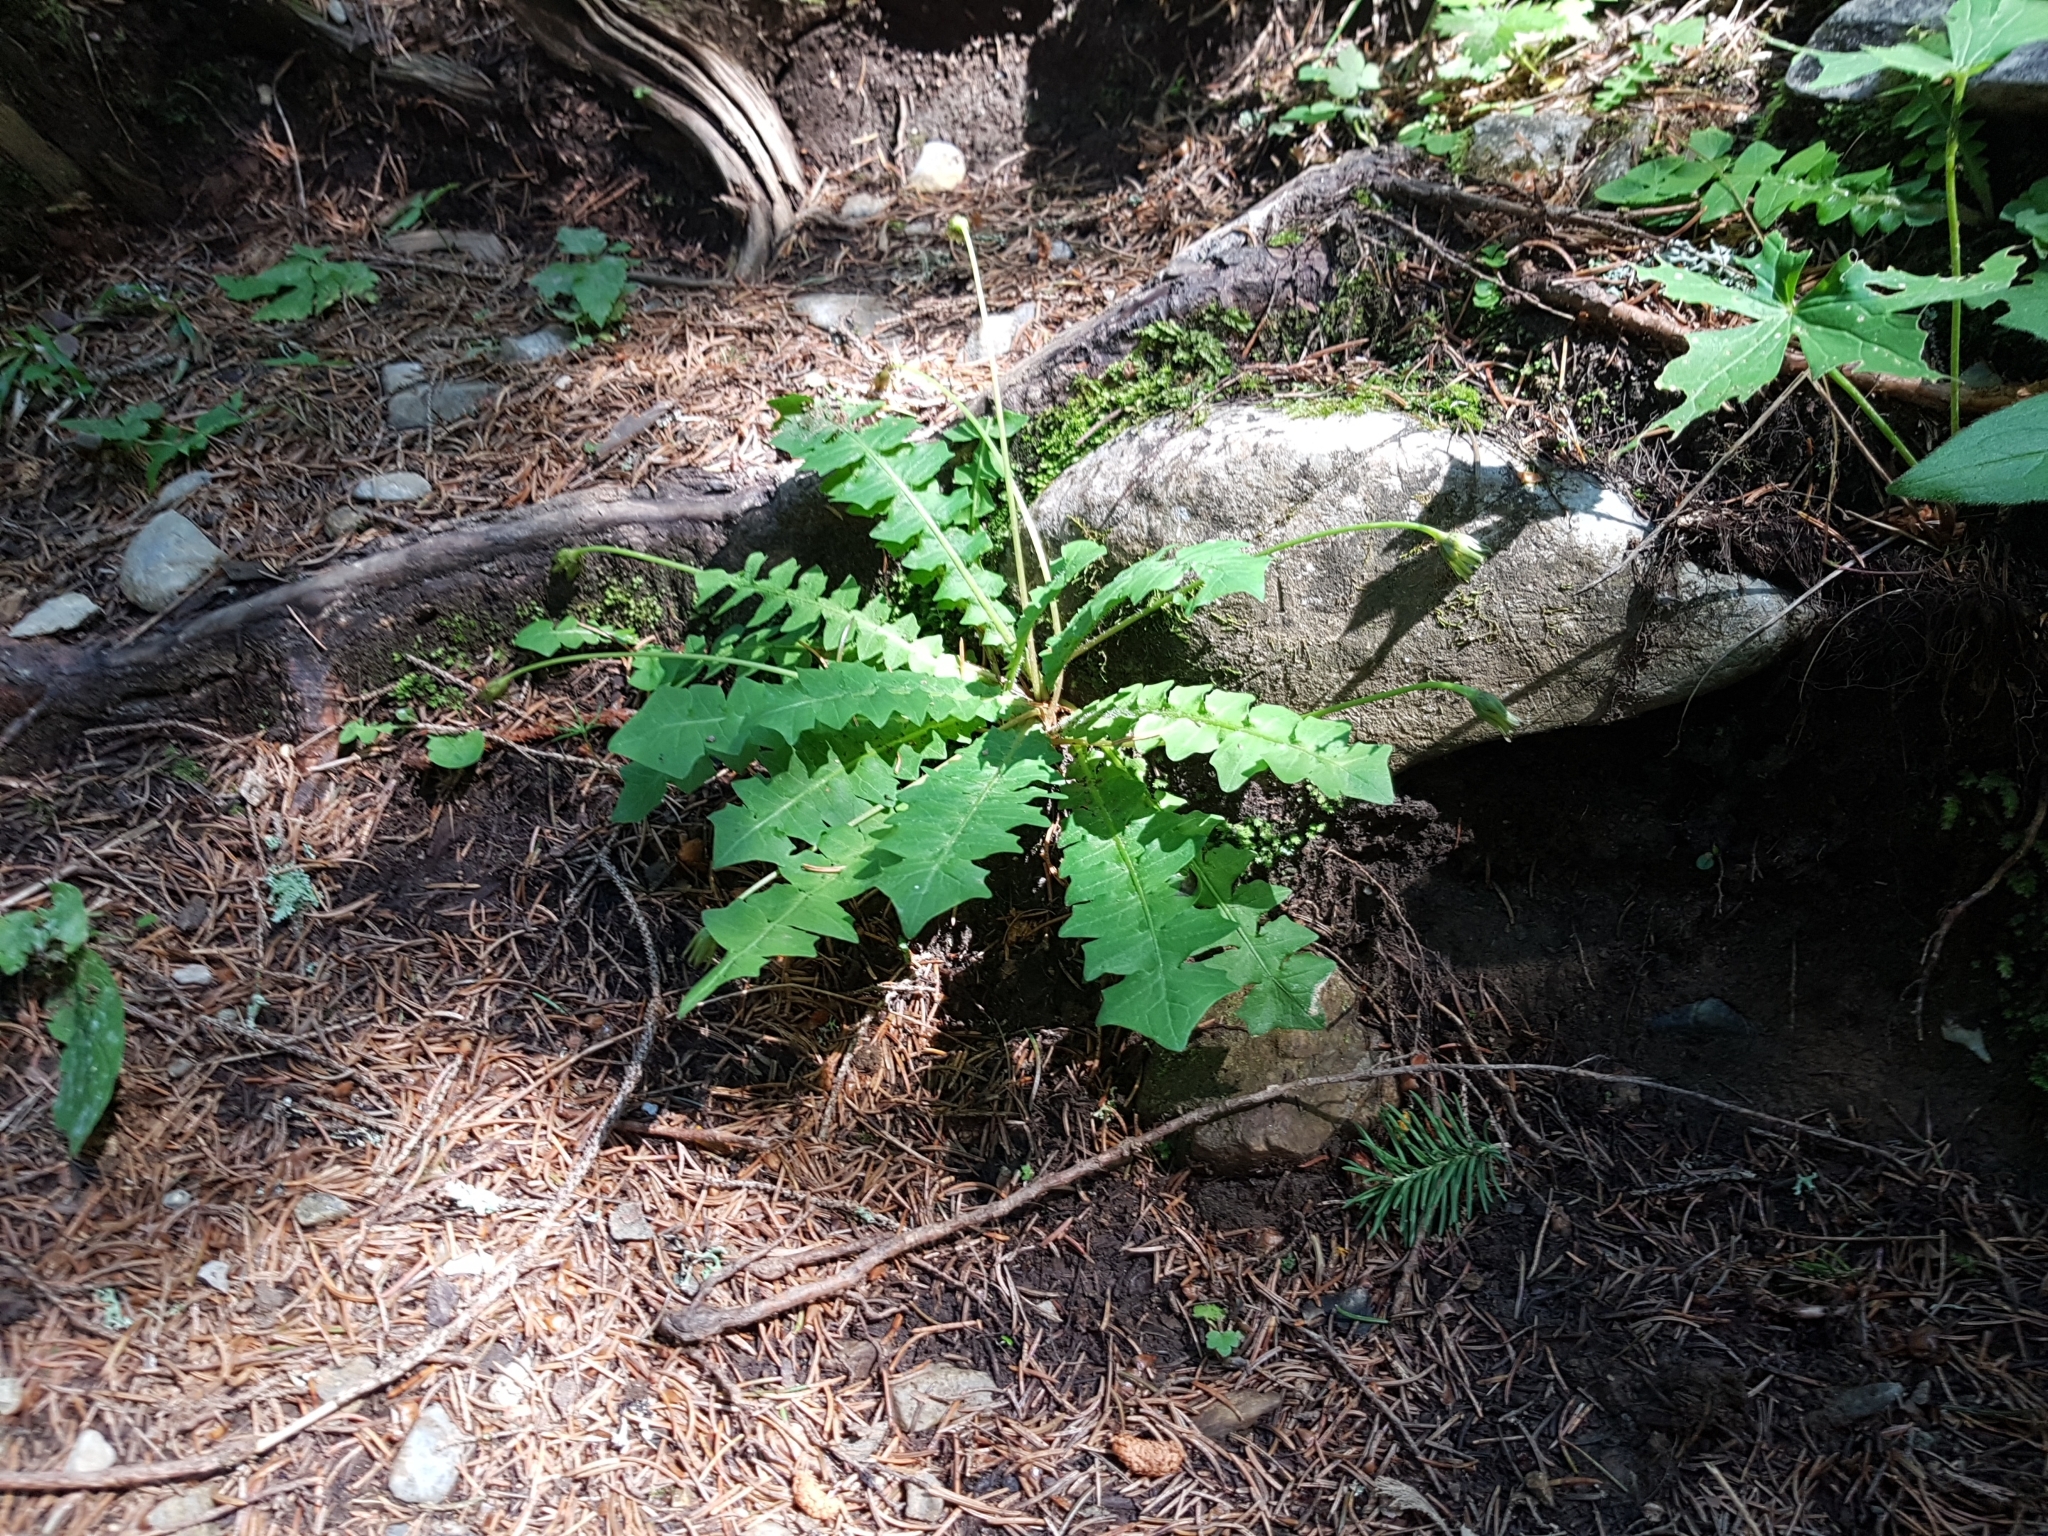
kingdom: Plantae
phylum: Tracheophyta
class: Magnoliopsida
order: Asterales
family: Asteraceae
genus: Aposeris
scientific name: Aposeris foetida
